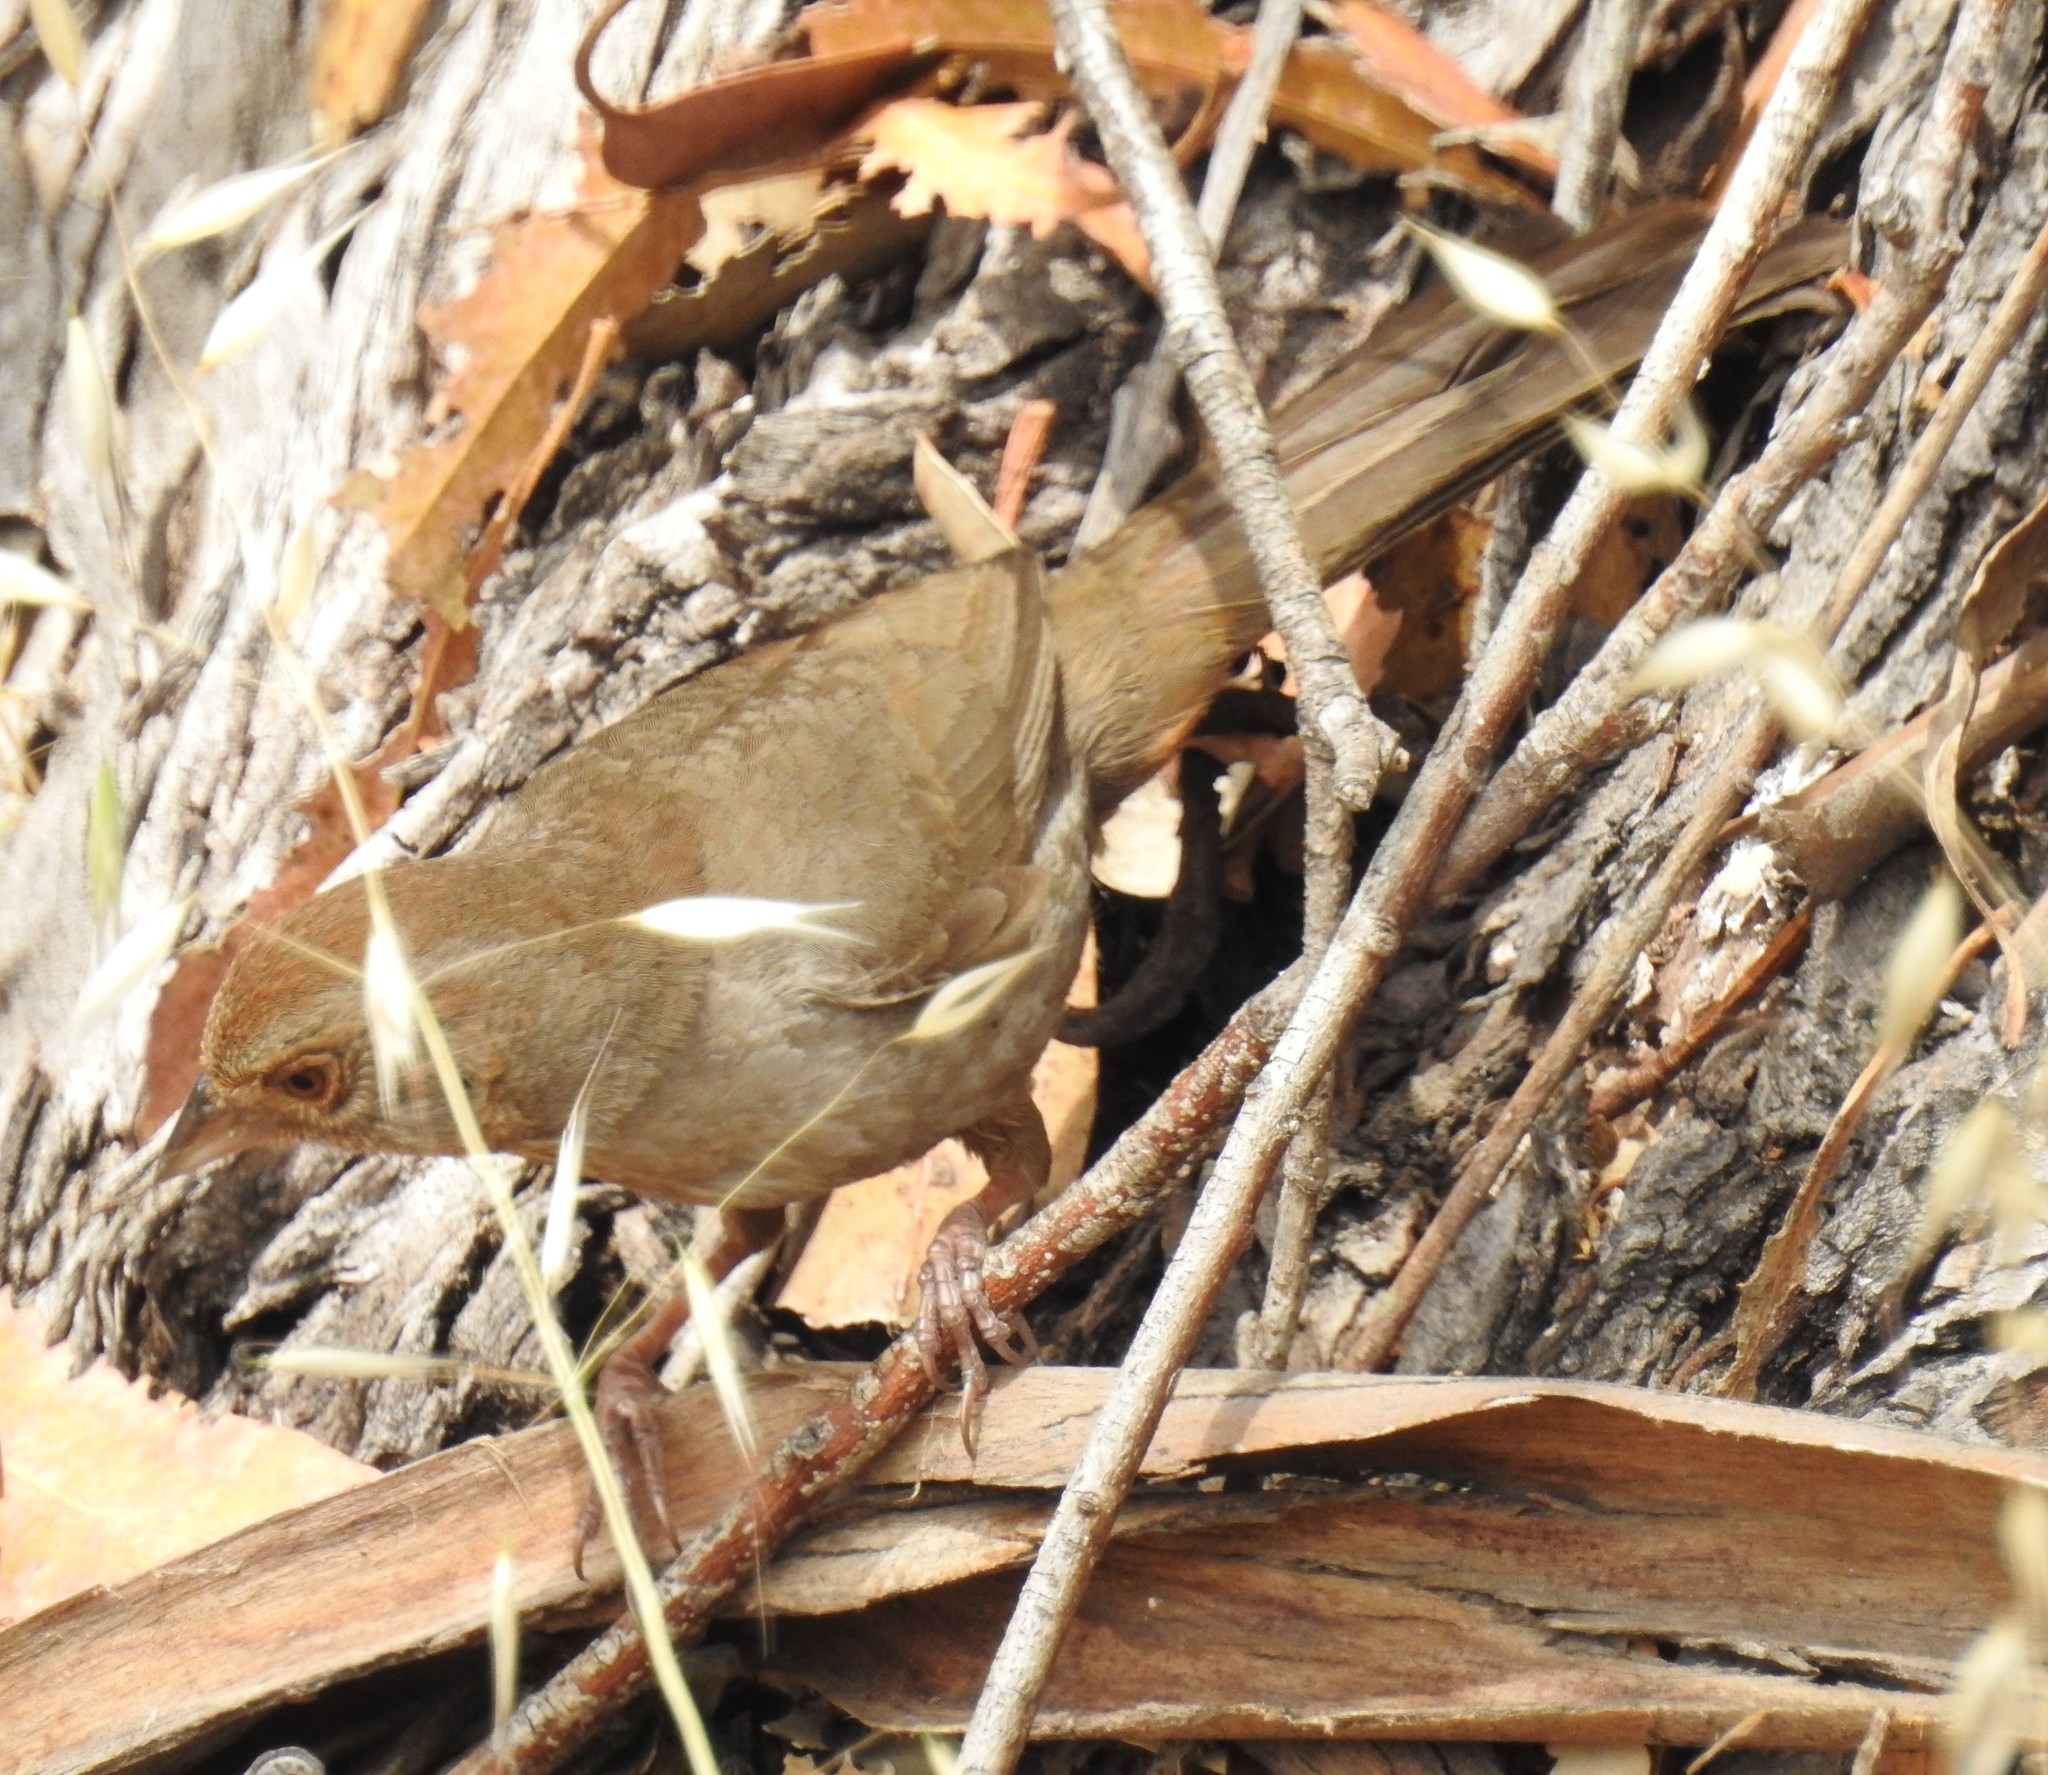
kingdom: Animalia
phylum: Chordata
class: Aves
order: Passeriformes
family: Passerellidae
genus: Melozone
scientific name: Melozone crissalis
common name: California towhee
